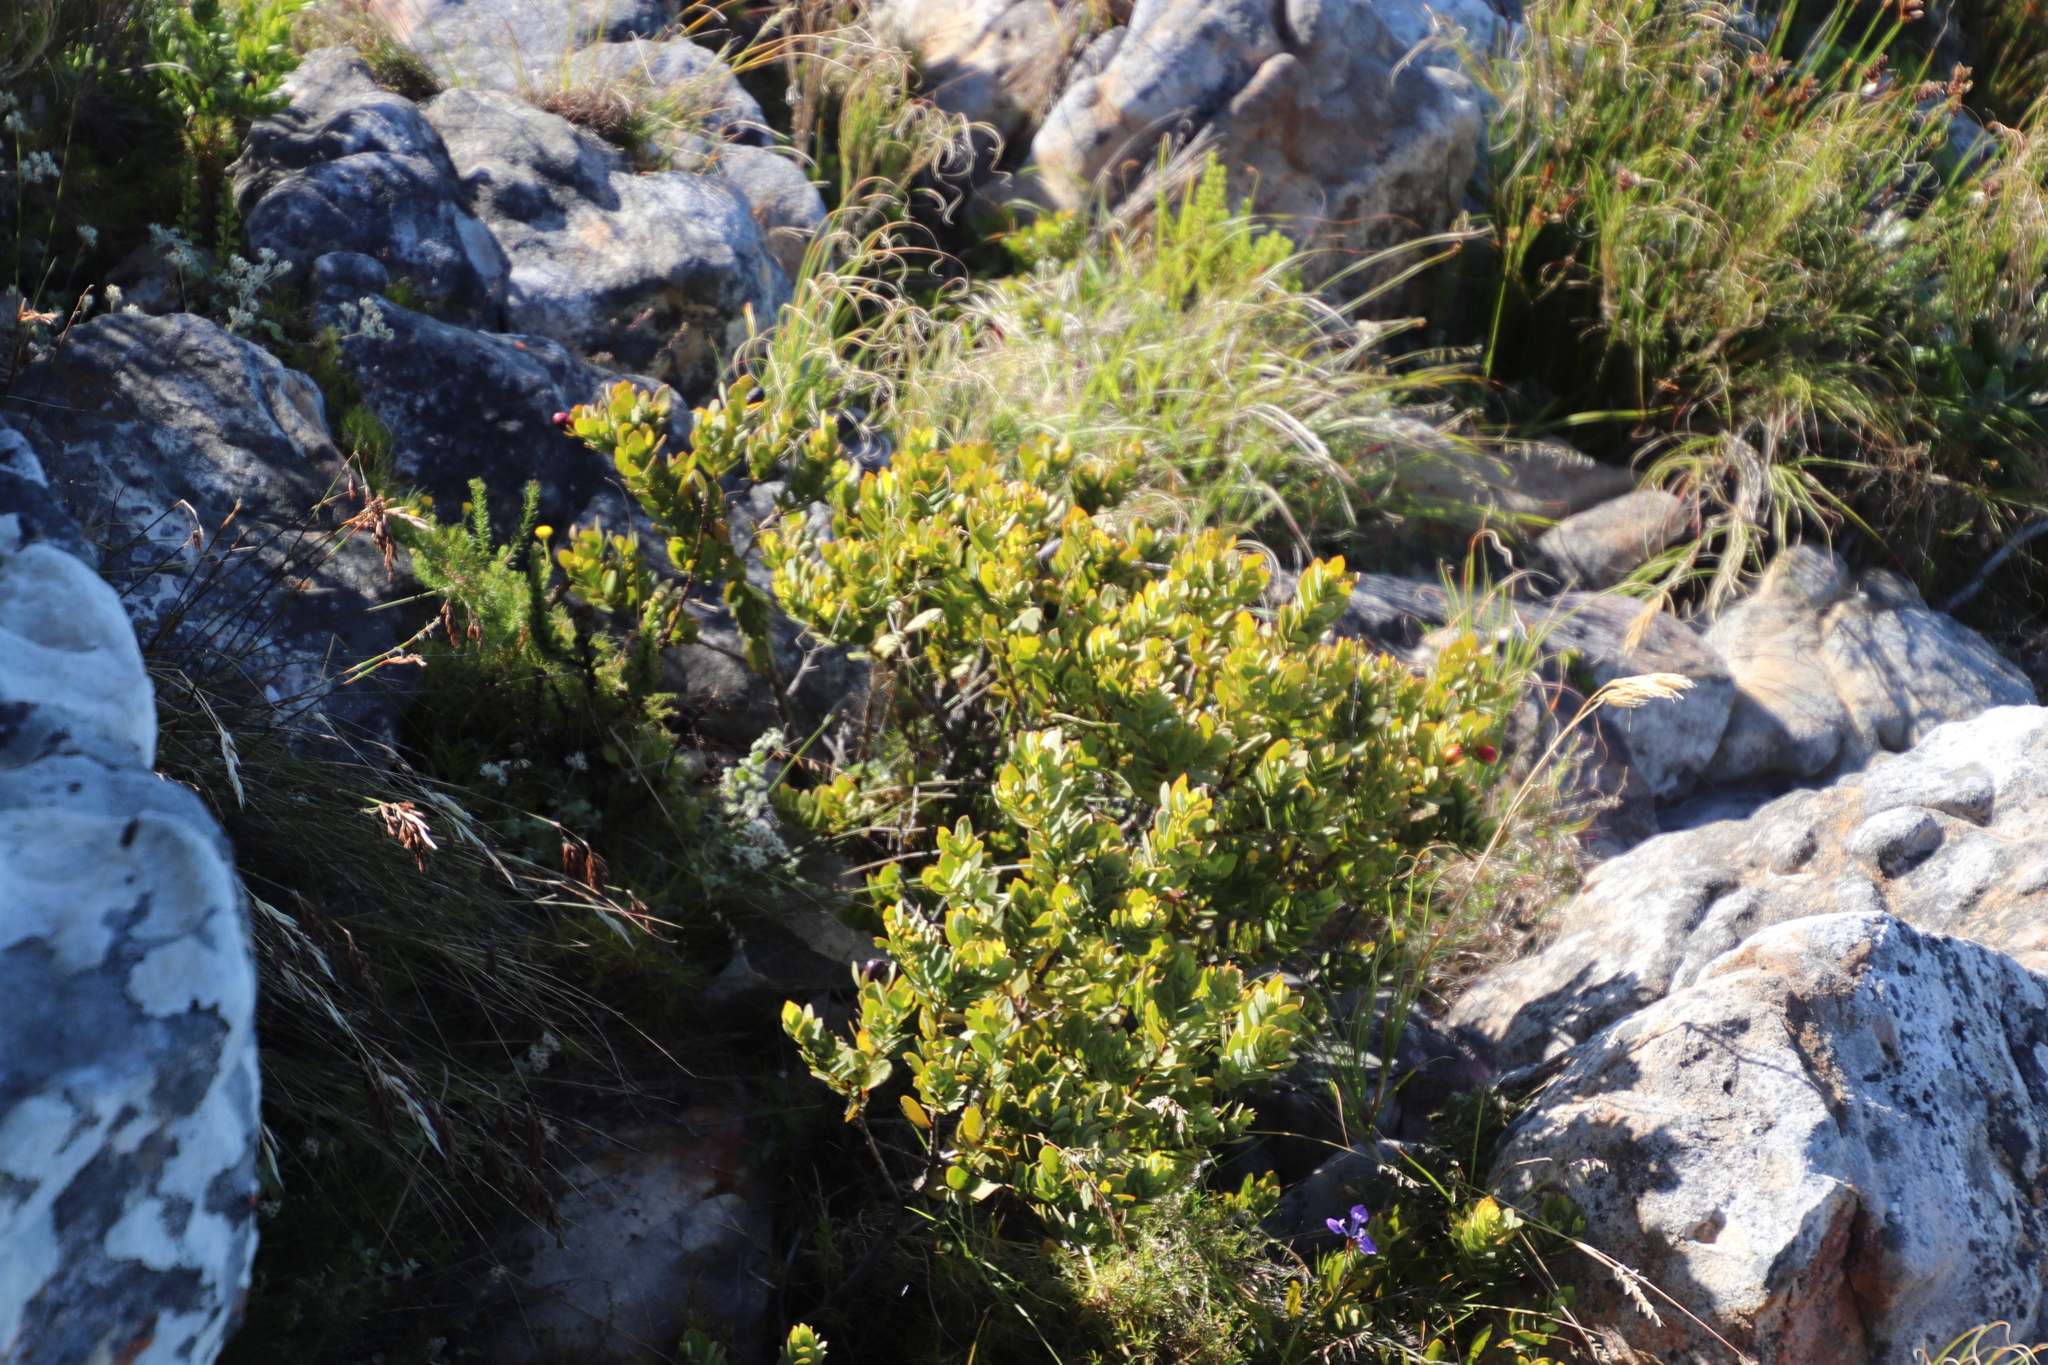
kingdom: Plantae
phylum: Tracheophyta
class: Magnoliopsida
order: Santalales
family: Santalaceae
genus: Osyris
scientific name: Osyris compressa
